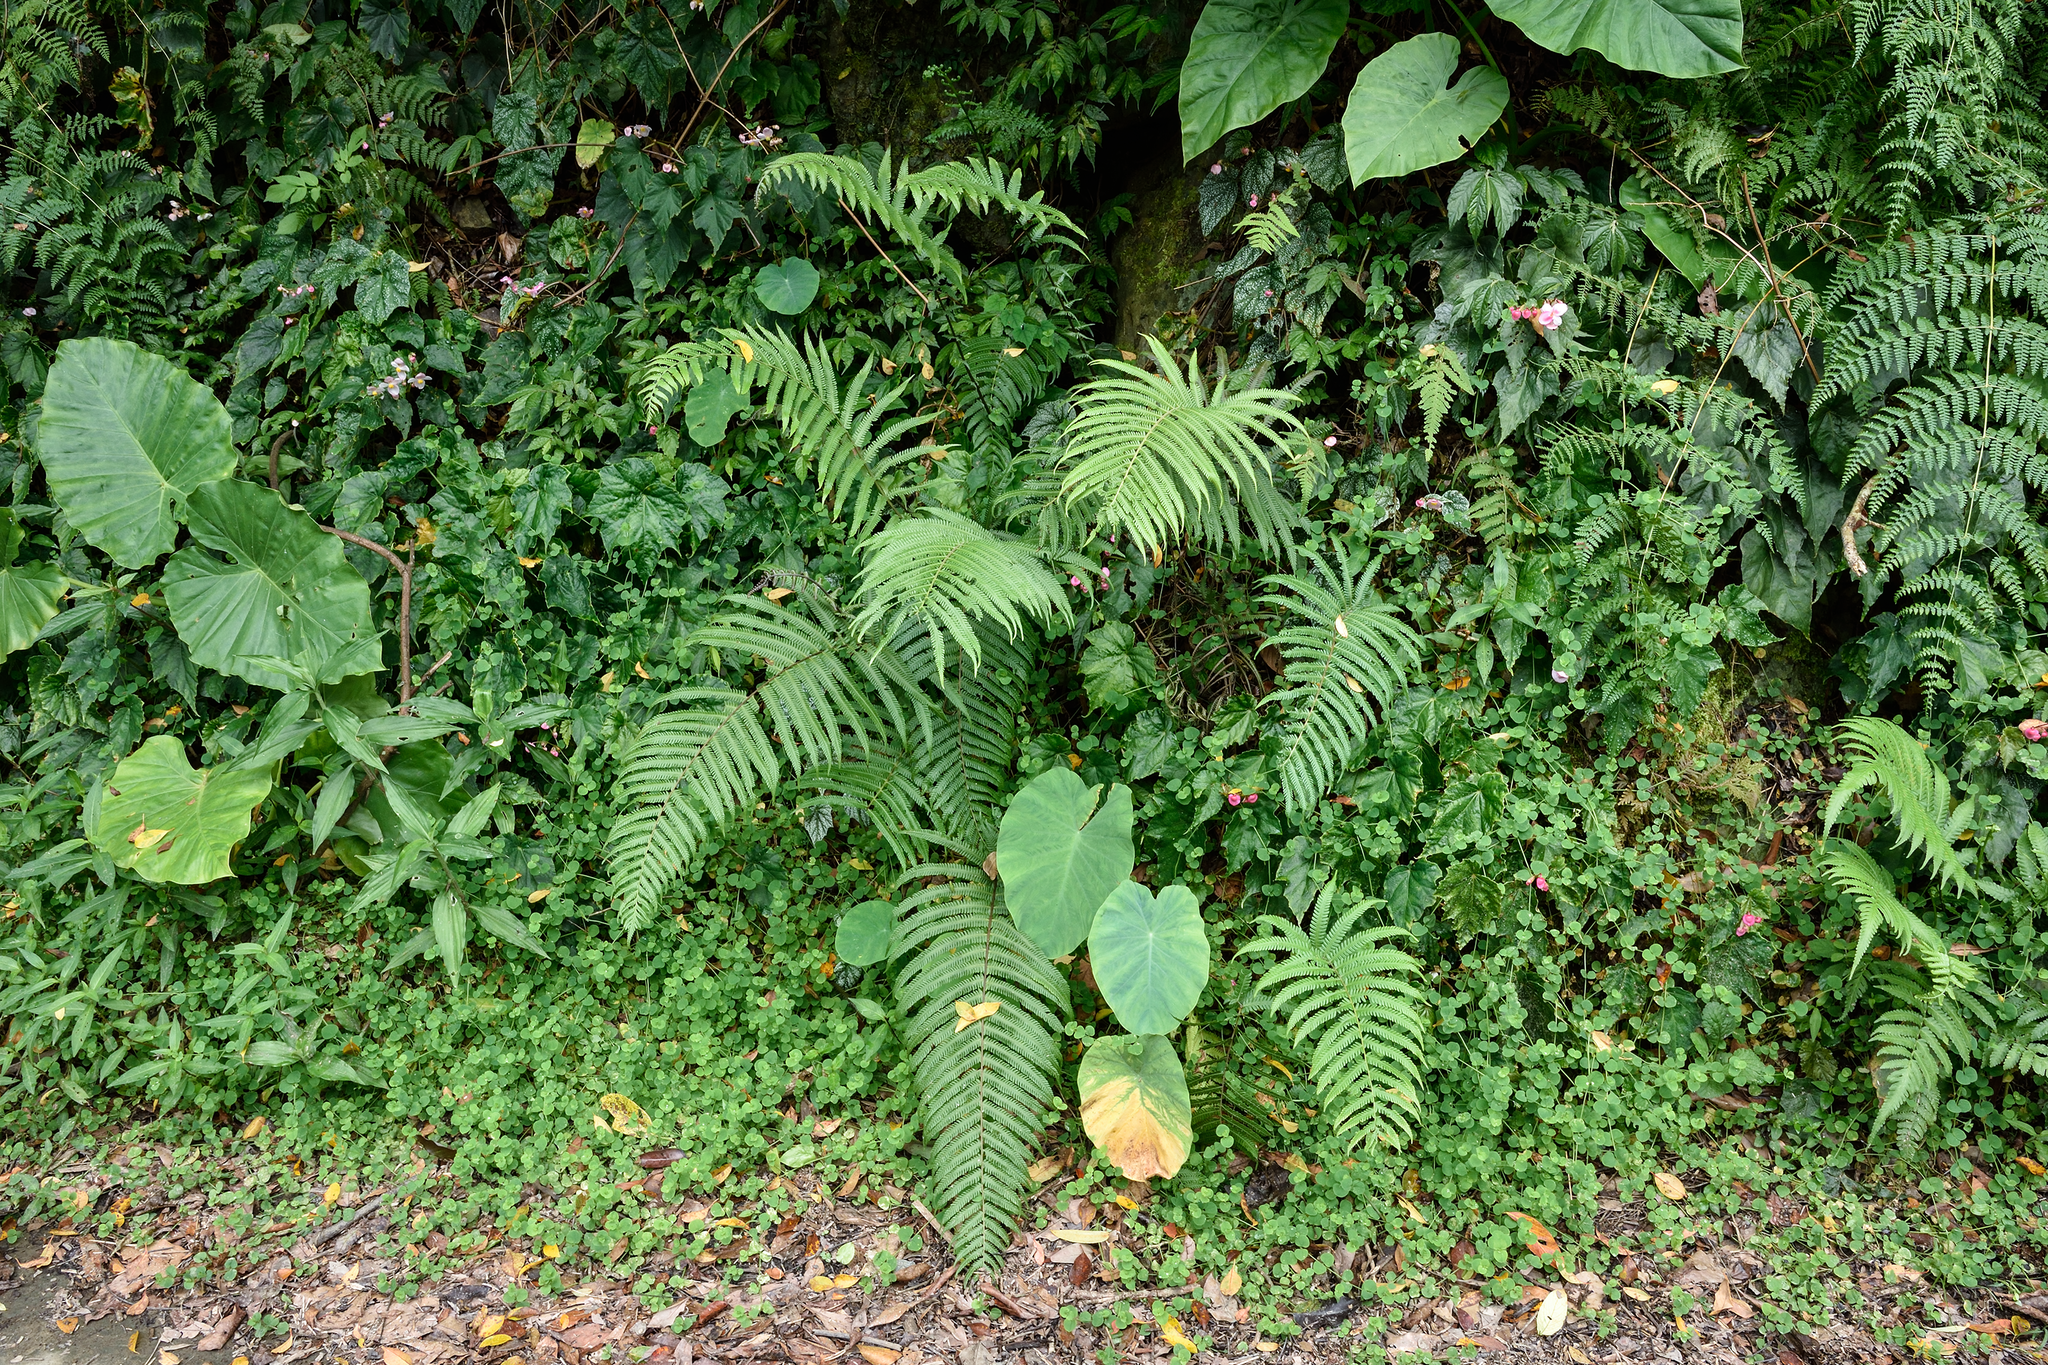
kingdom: Plantae
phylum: Tracheophyta
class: Polypodiopsida
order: Polypodiales
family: Thelypteridaceae
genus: Pseudocyclosorus
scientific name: Pseudocyclosorus esquirolii
